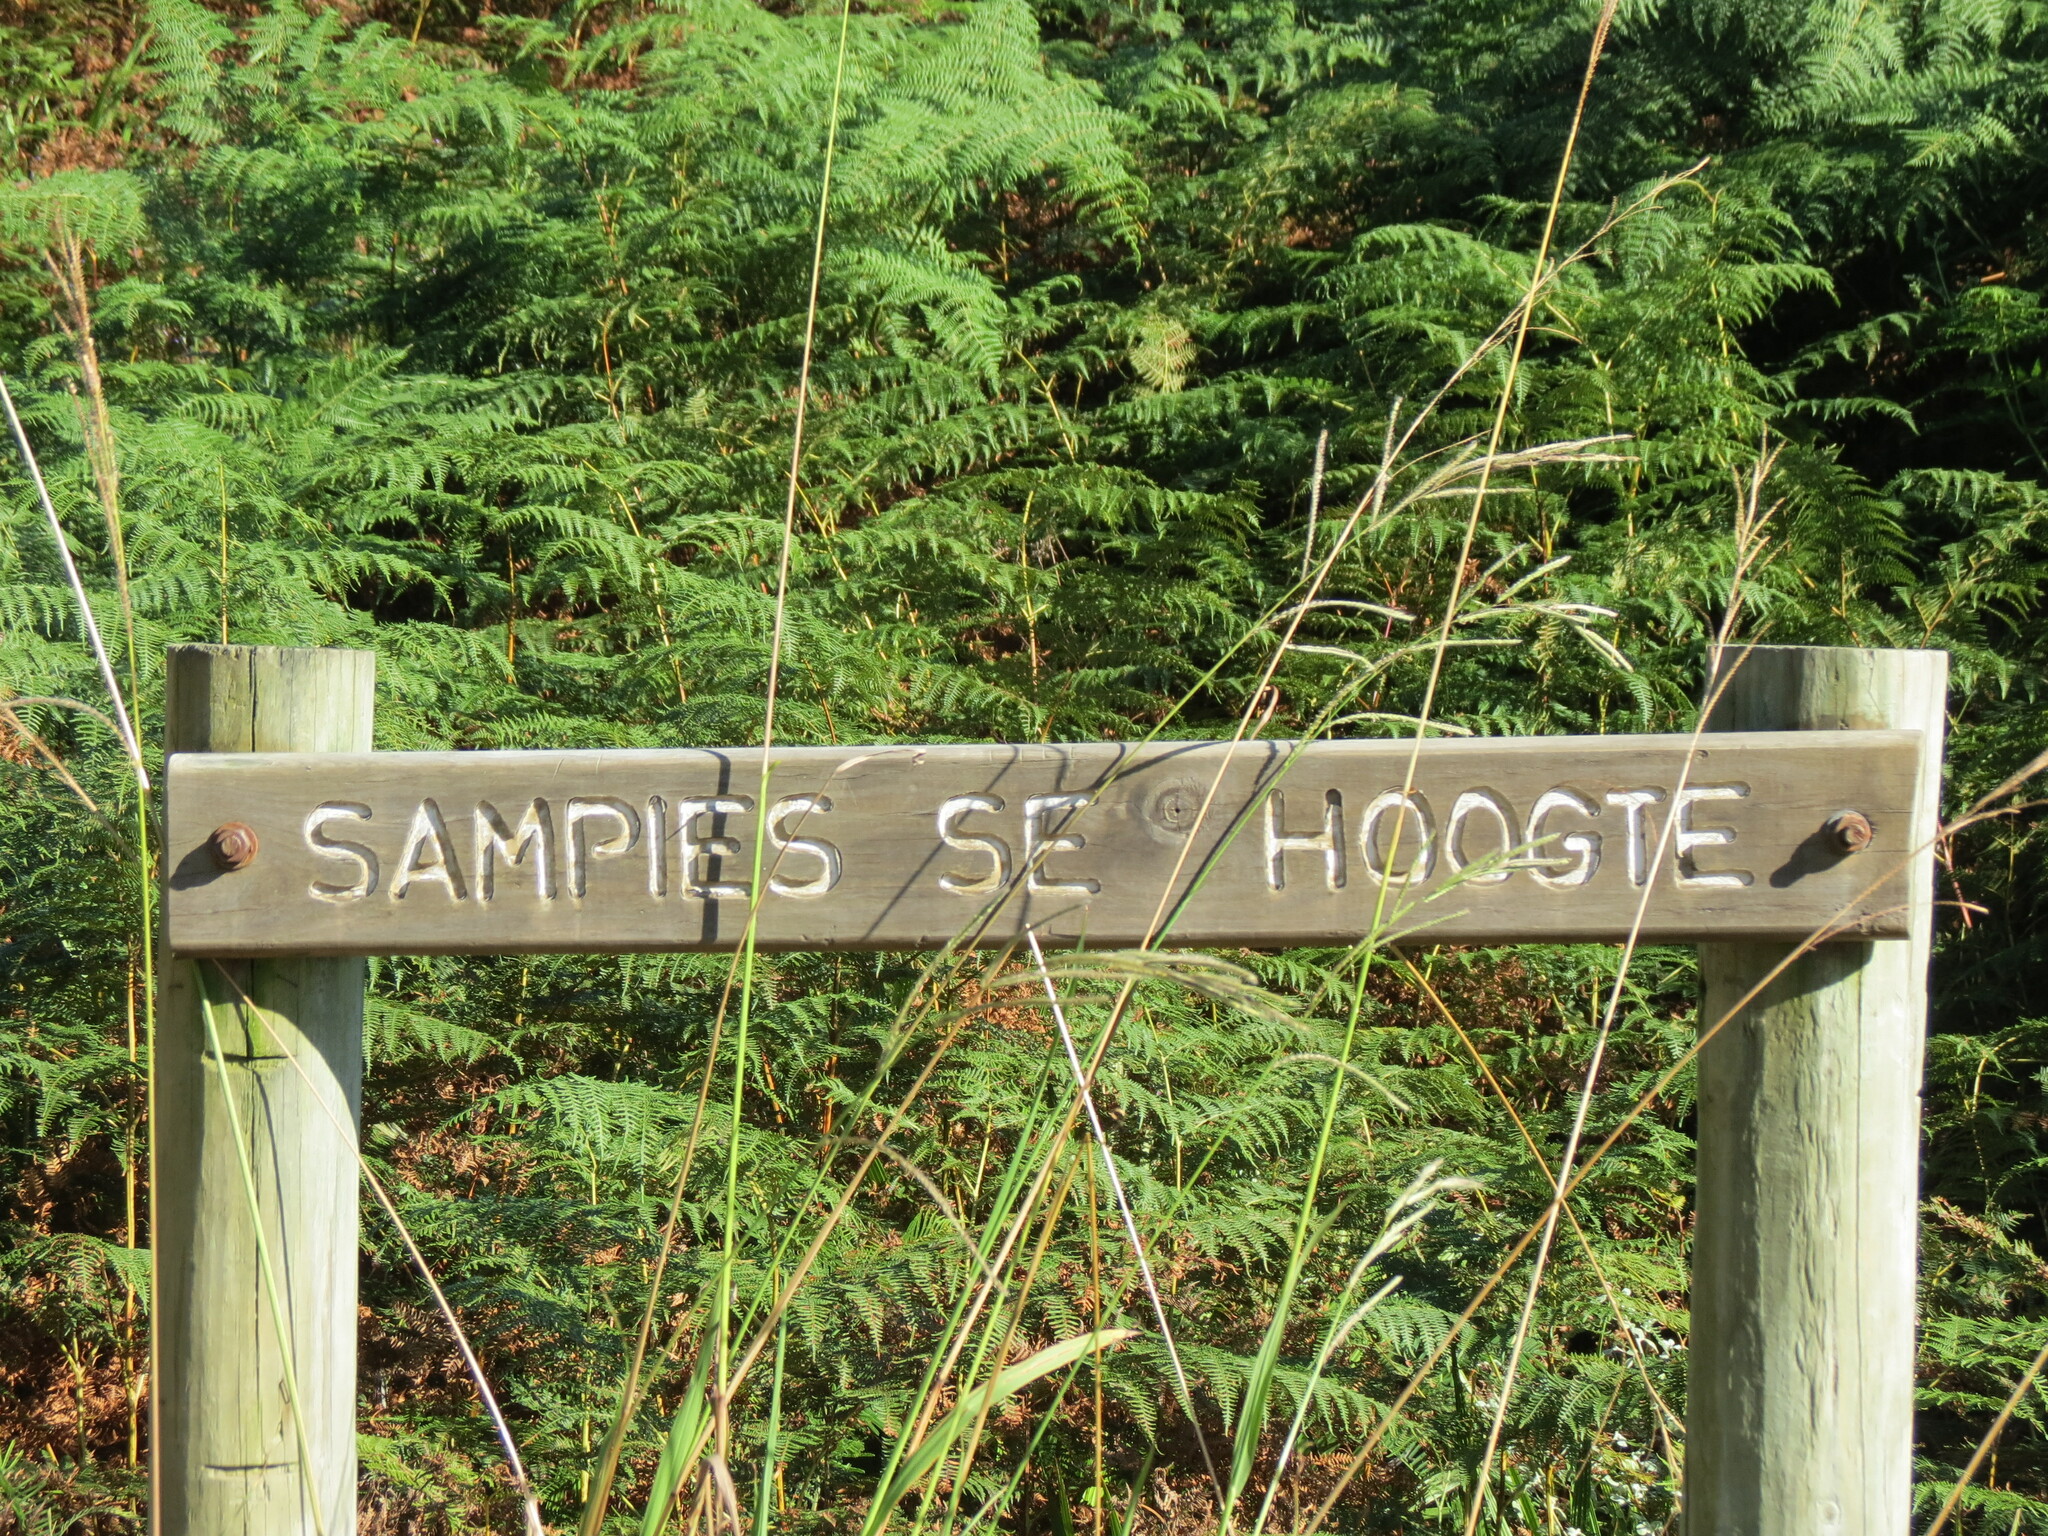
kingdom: Plantae
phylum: Tracheophyta
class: Liliopsida
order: Poales
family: Poaceae
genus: Paspalum
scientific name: Paspalum urvillei
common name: Vasey's grass
